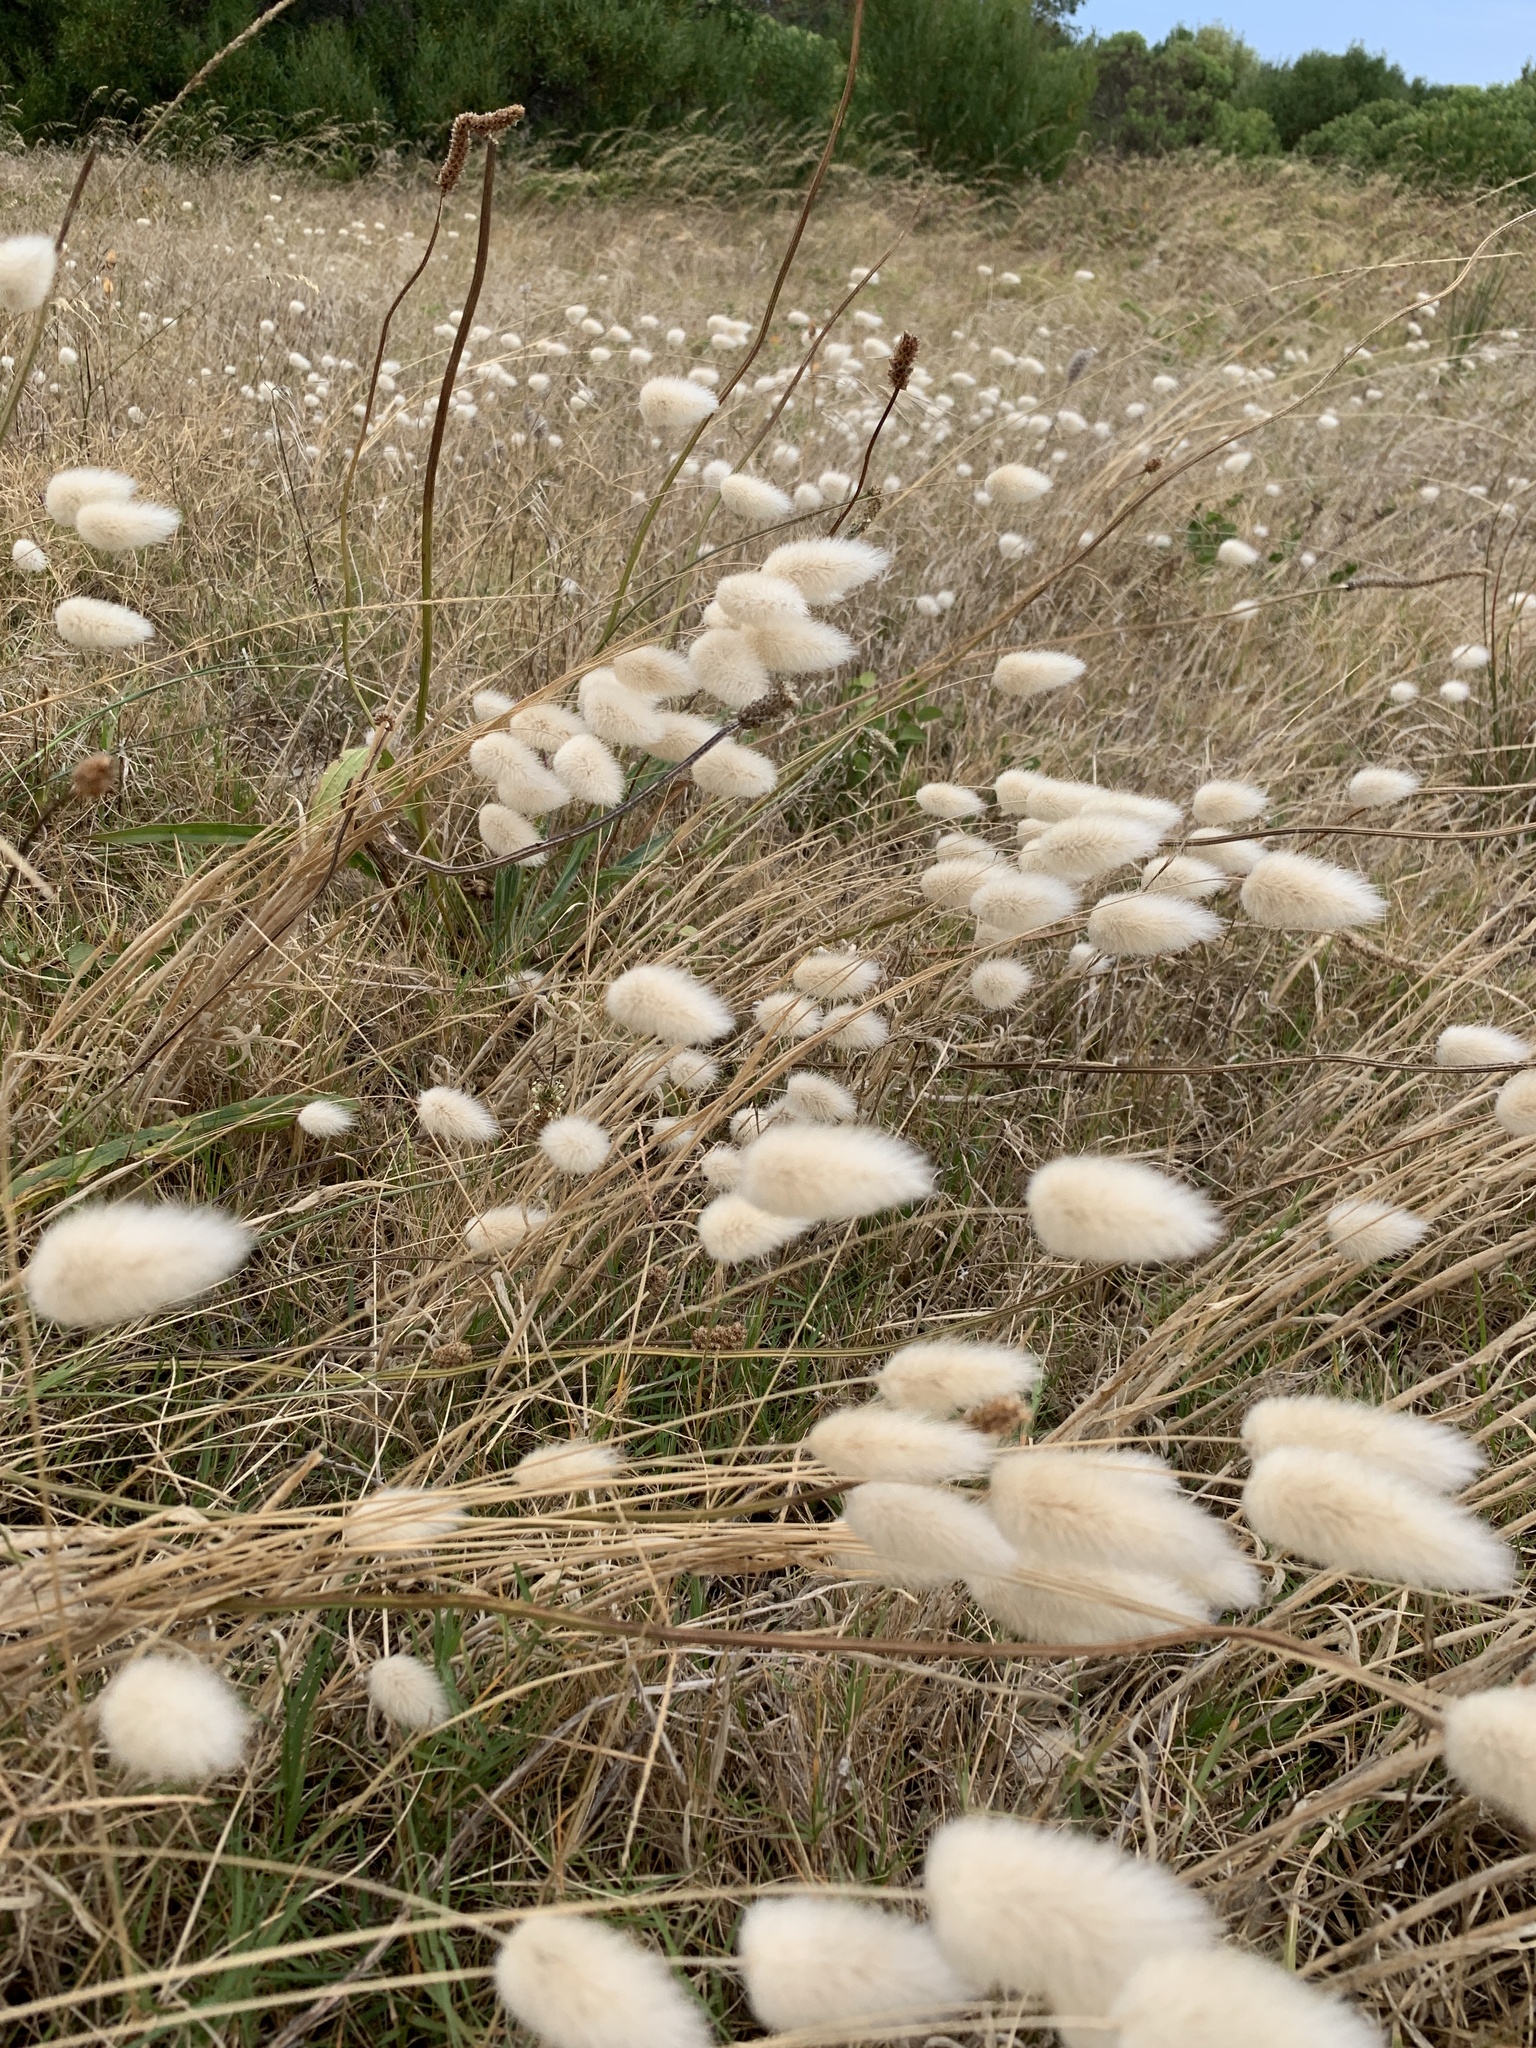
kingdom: Plantae
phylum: Tracheophyta
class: Liliopsida
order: Poales
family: Poaceae
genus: Lagurus
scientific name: Lagurus ovatus
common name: Hare's-tail
